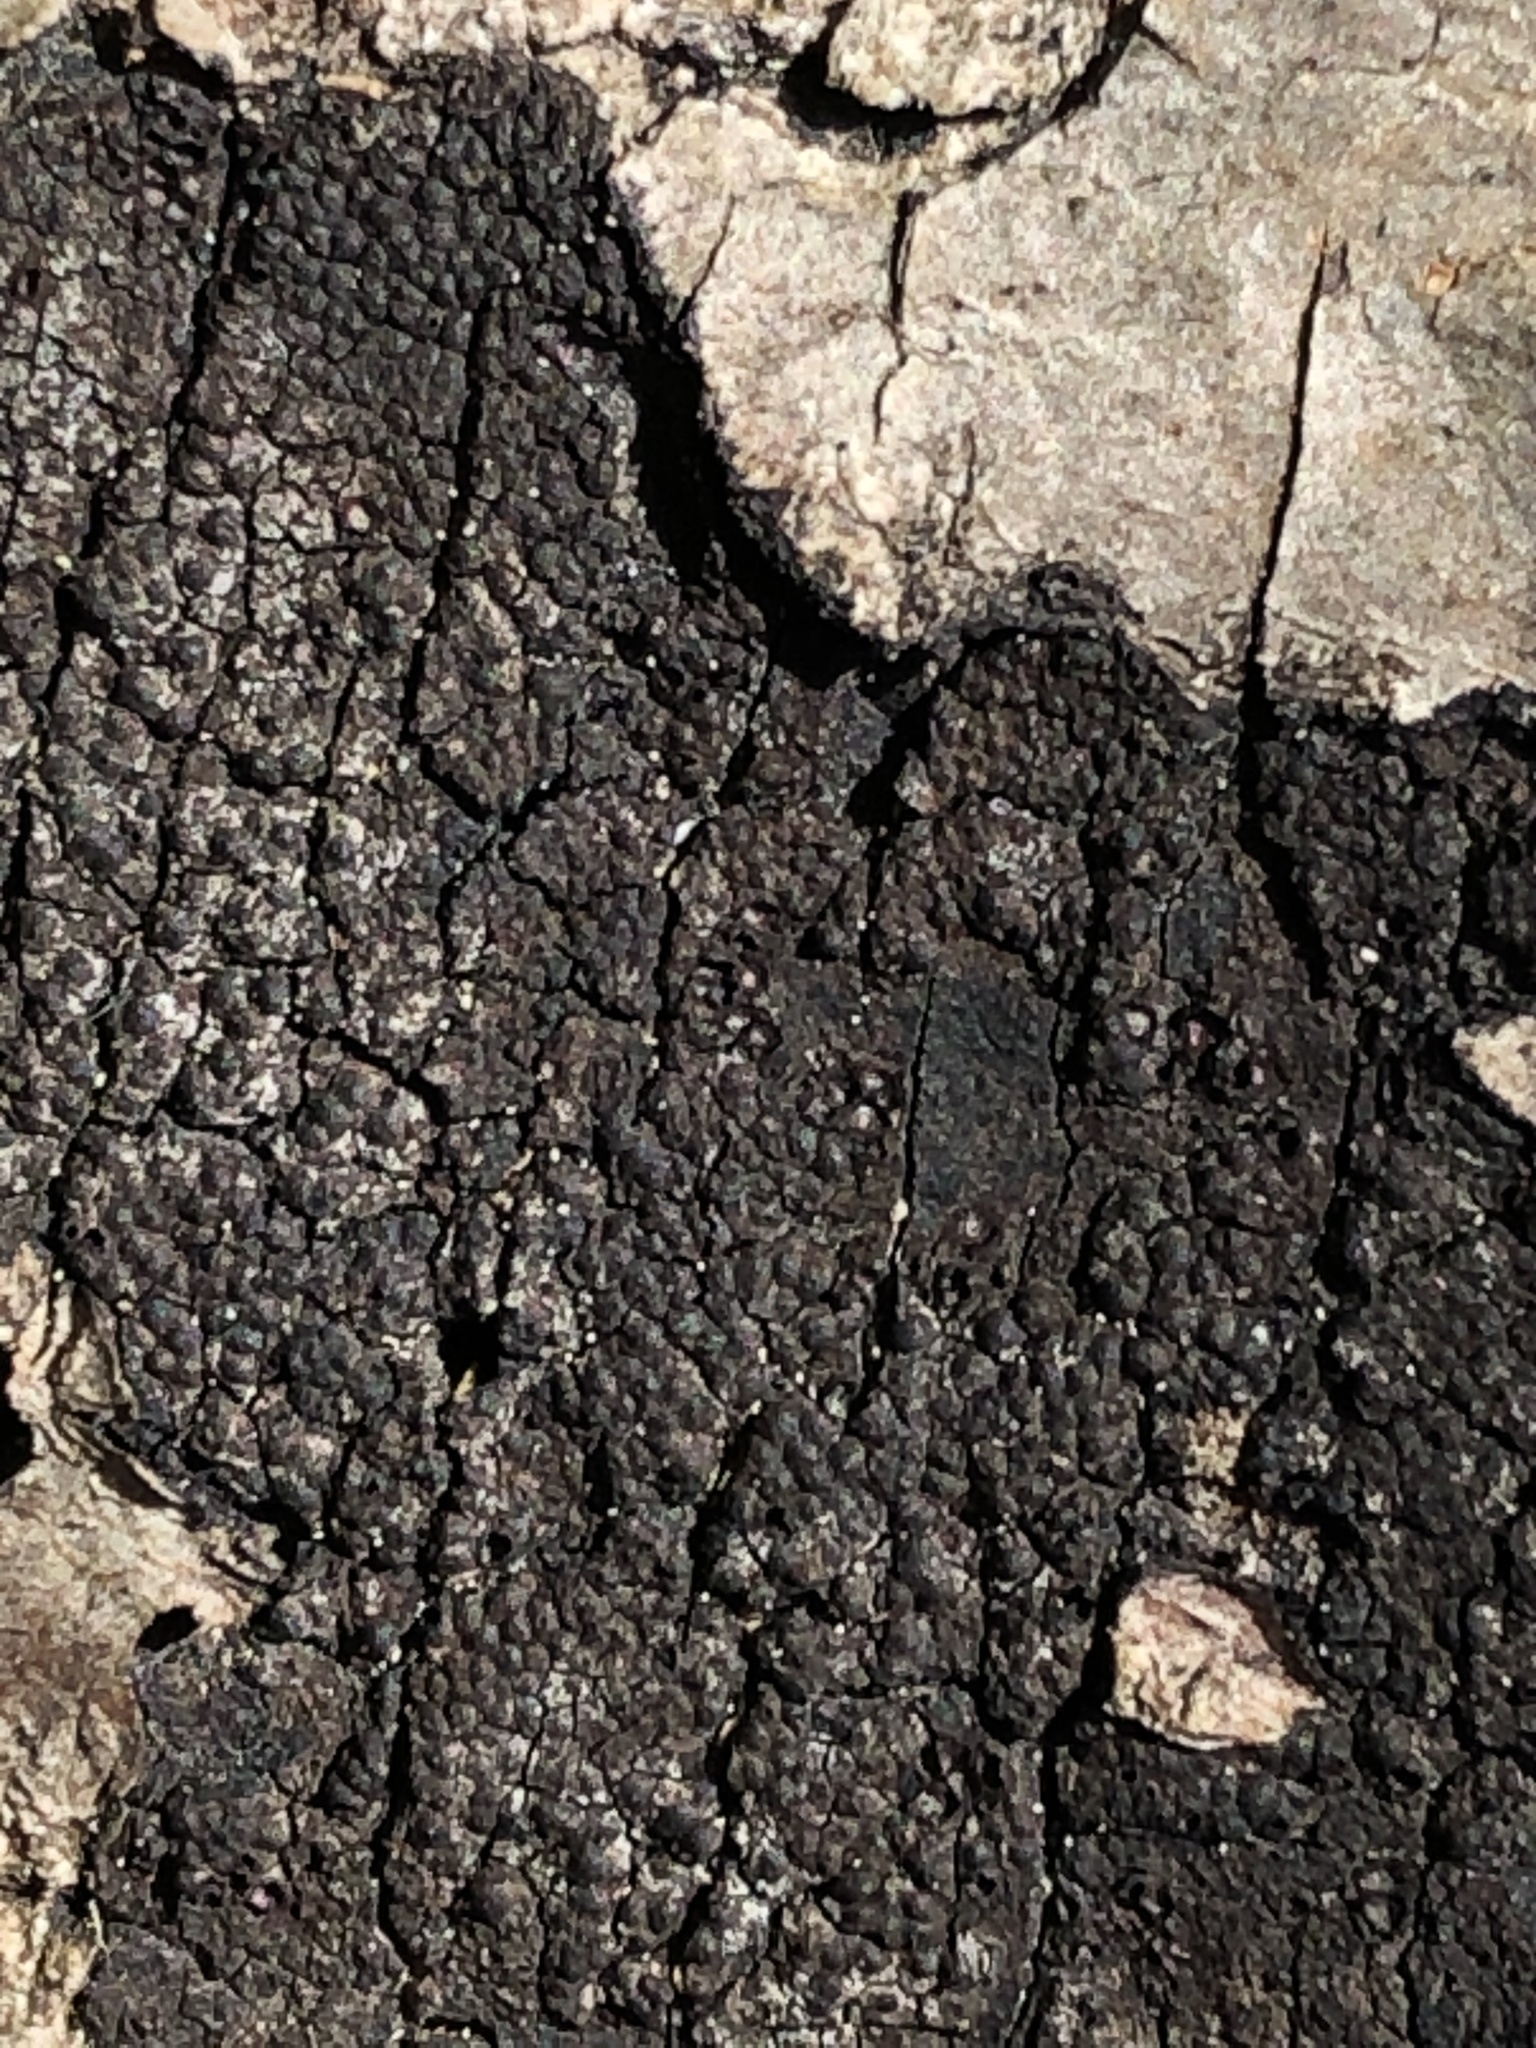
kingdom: Fungi
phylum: Ascomycota
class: Sordariomycetes
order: Xylariales
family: Diatrypaceae
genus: Diatrype
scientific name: Diatrype stigma
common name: Common tarcrust
